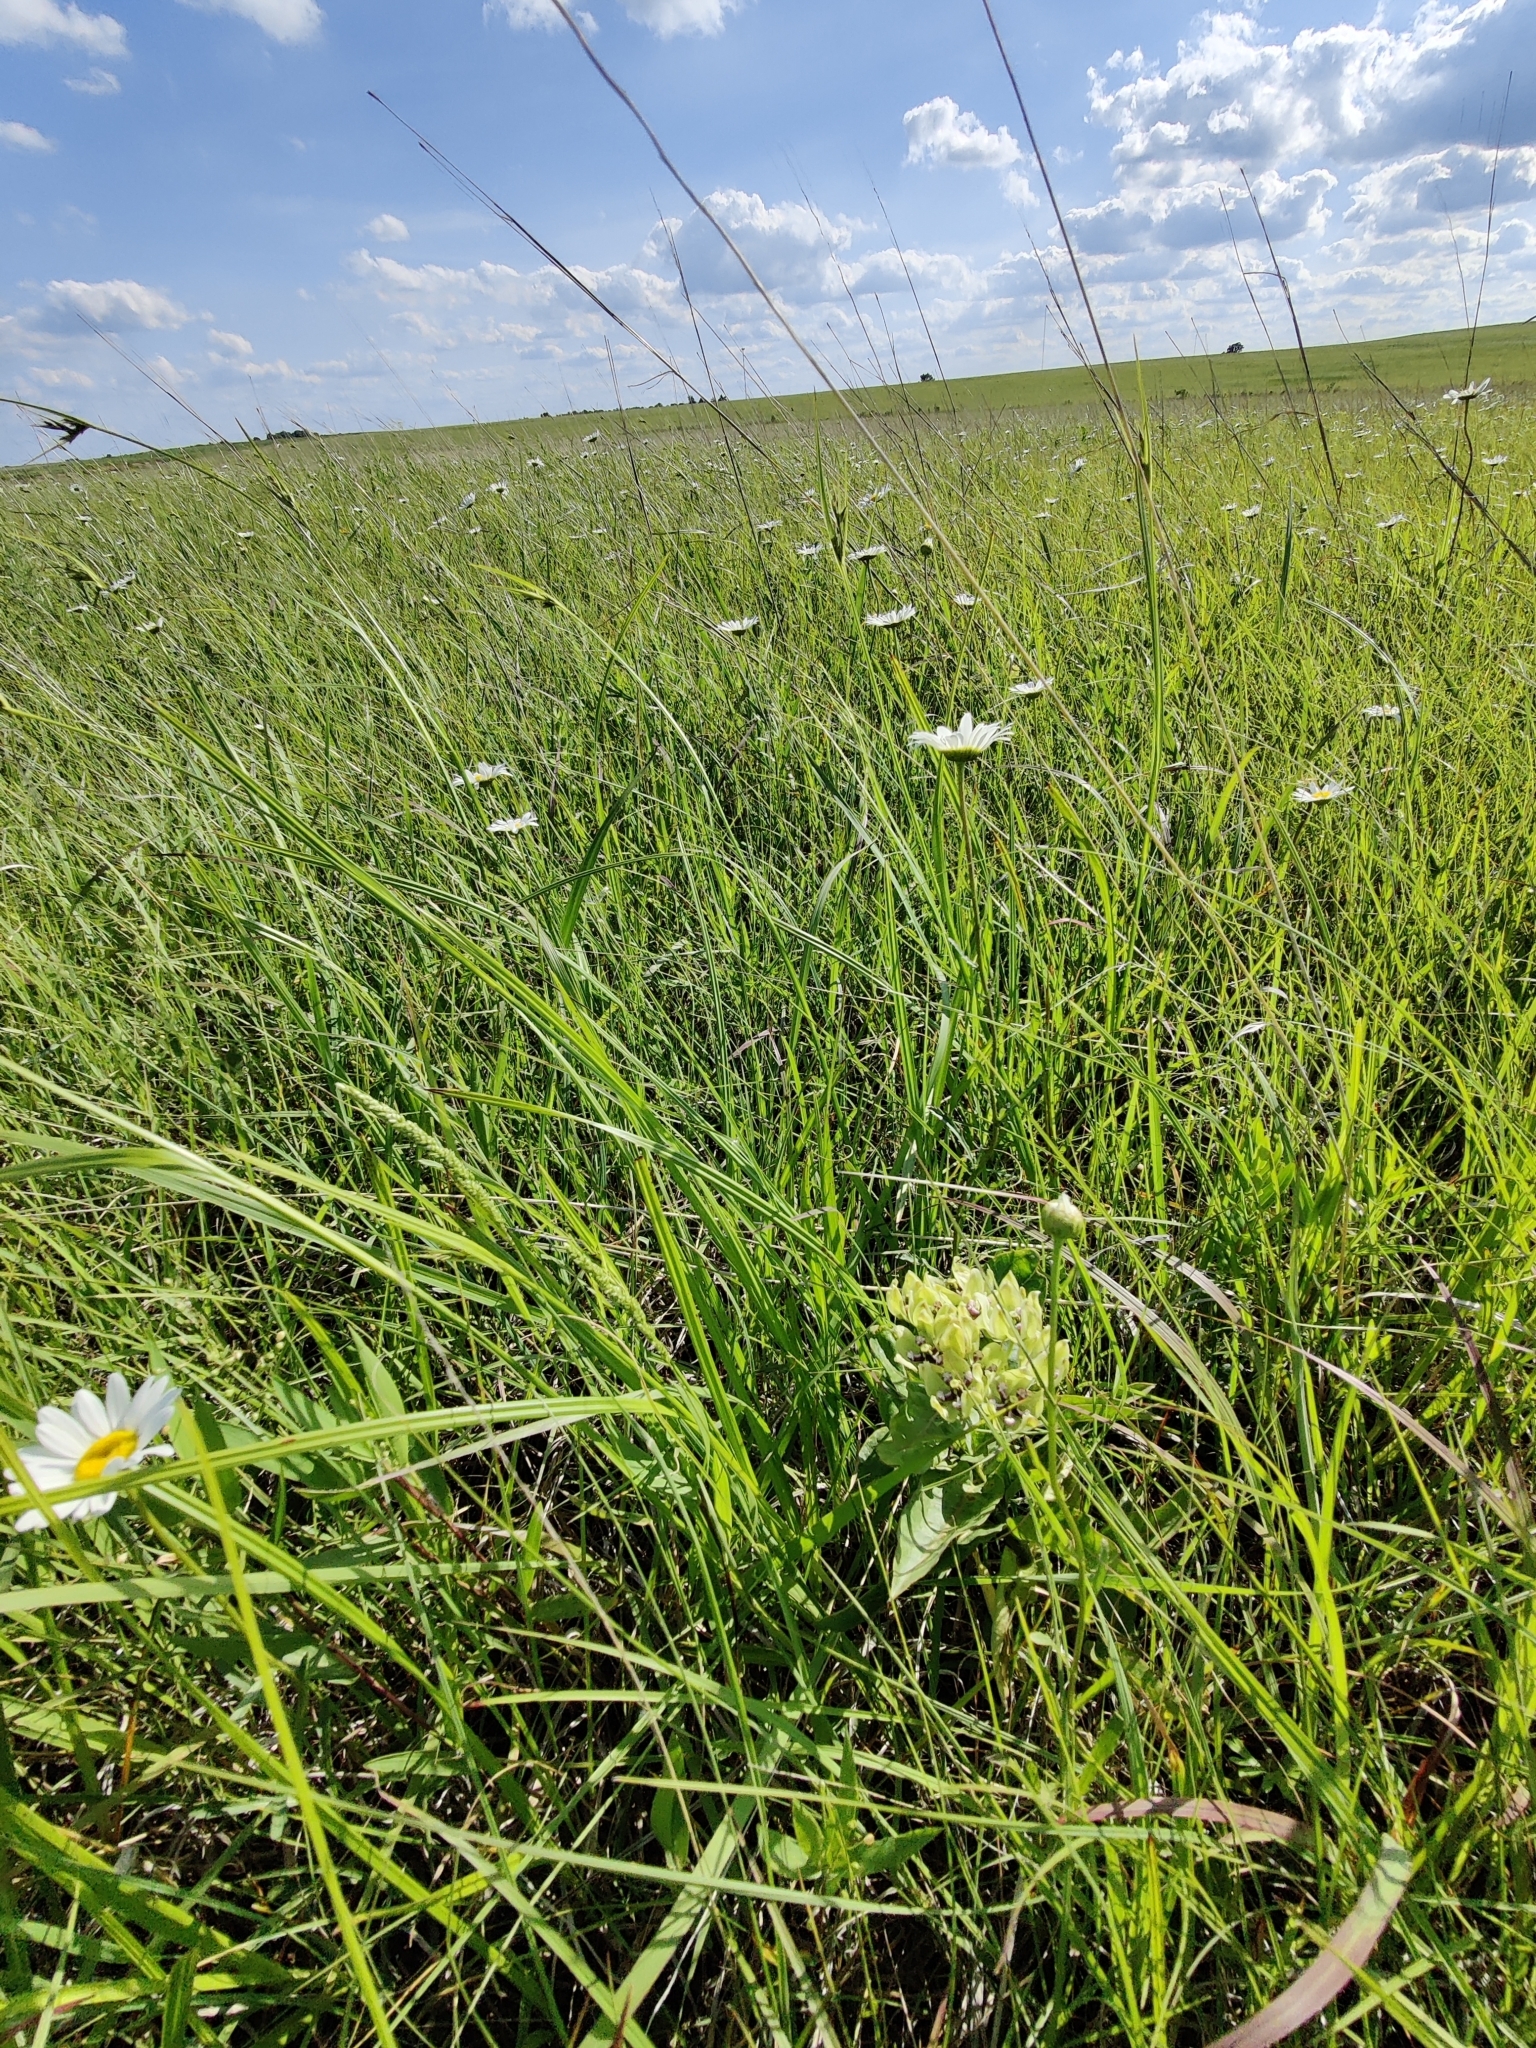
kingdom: Plantae
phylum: Tracheophyta
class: Magnoliopsida
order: Gentianales
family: Apocynaceae
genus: Asclepias
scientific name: Asclepias viridis
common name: Antelope-horns
